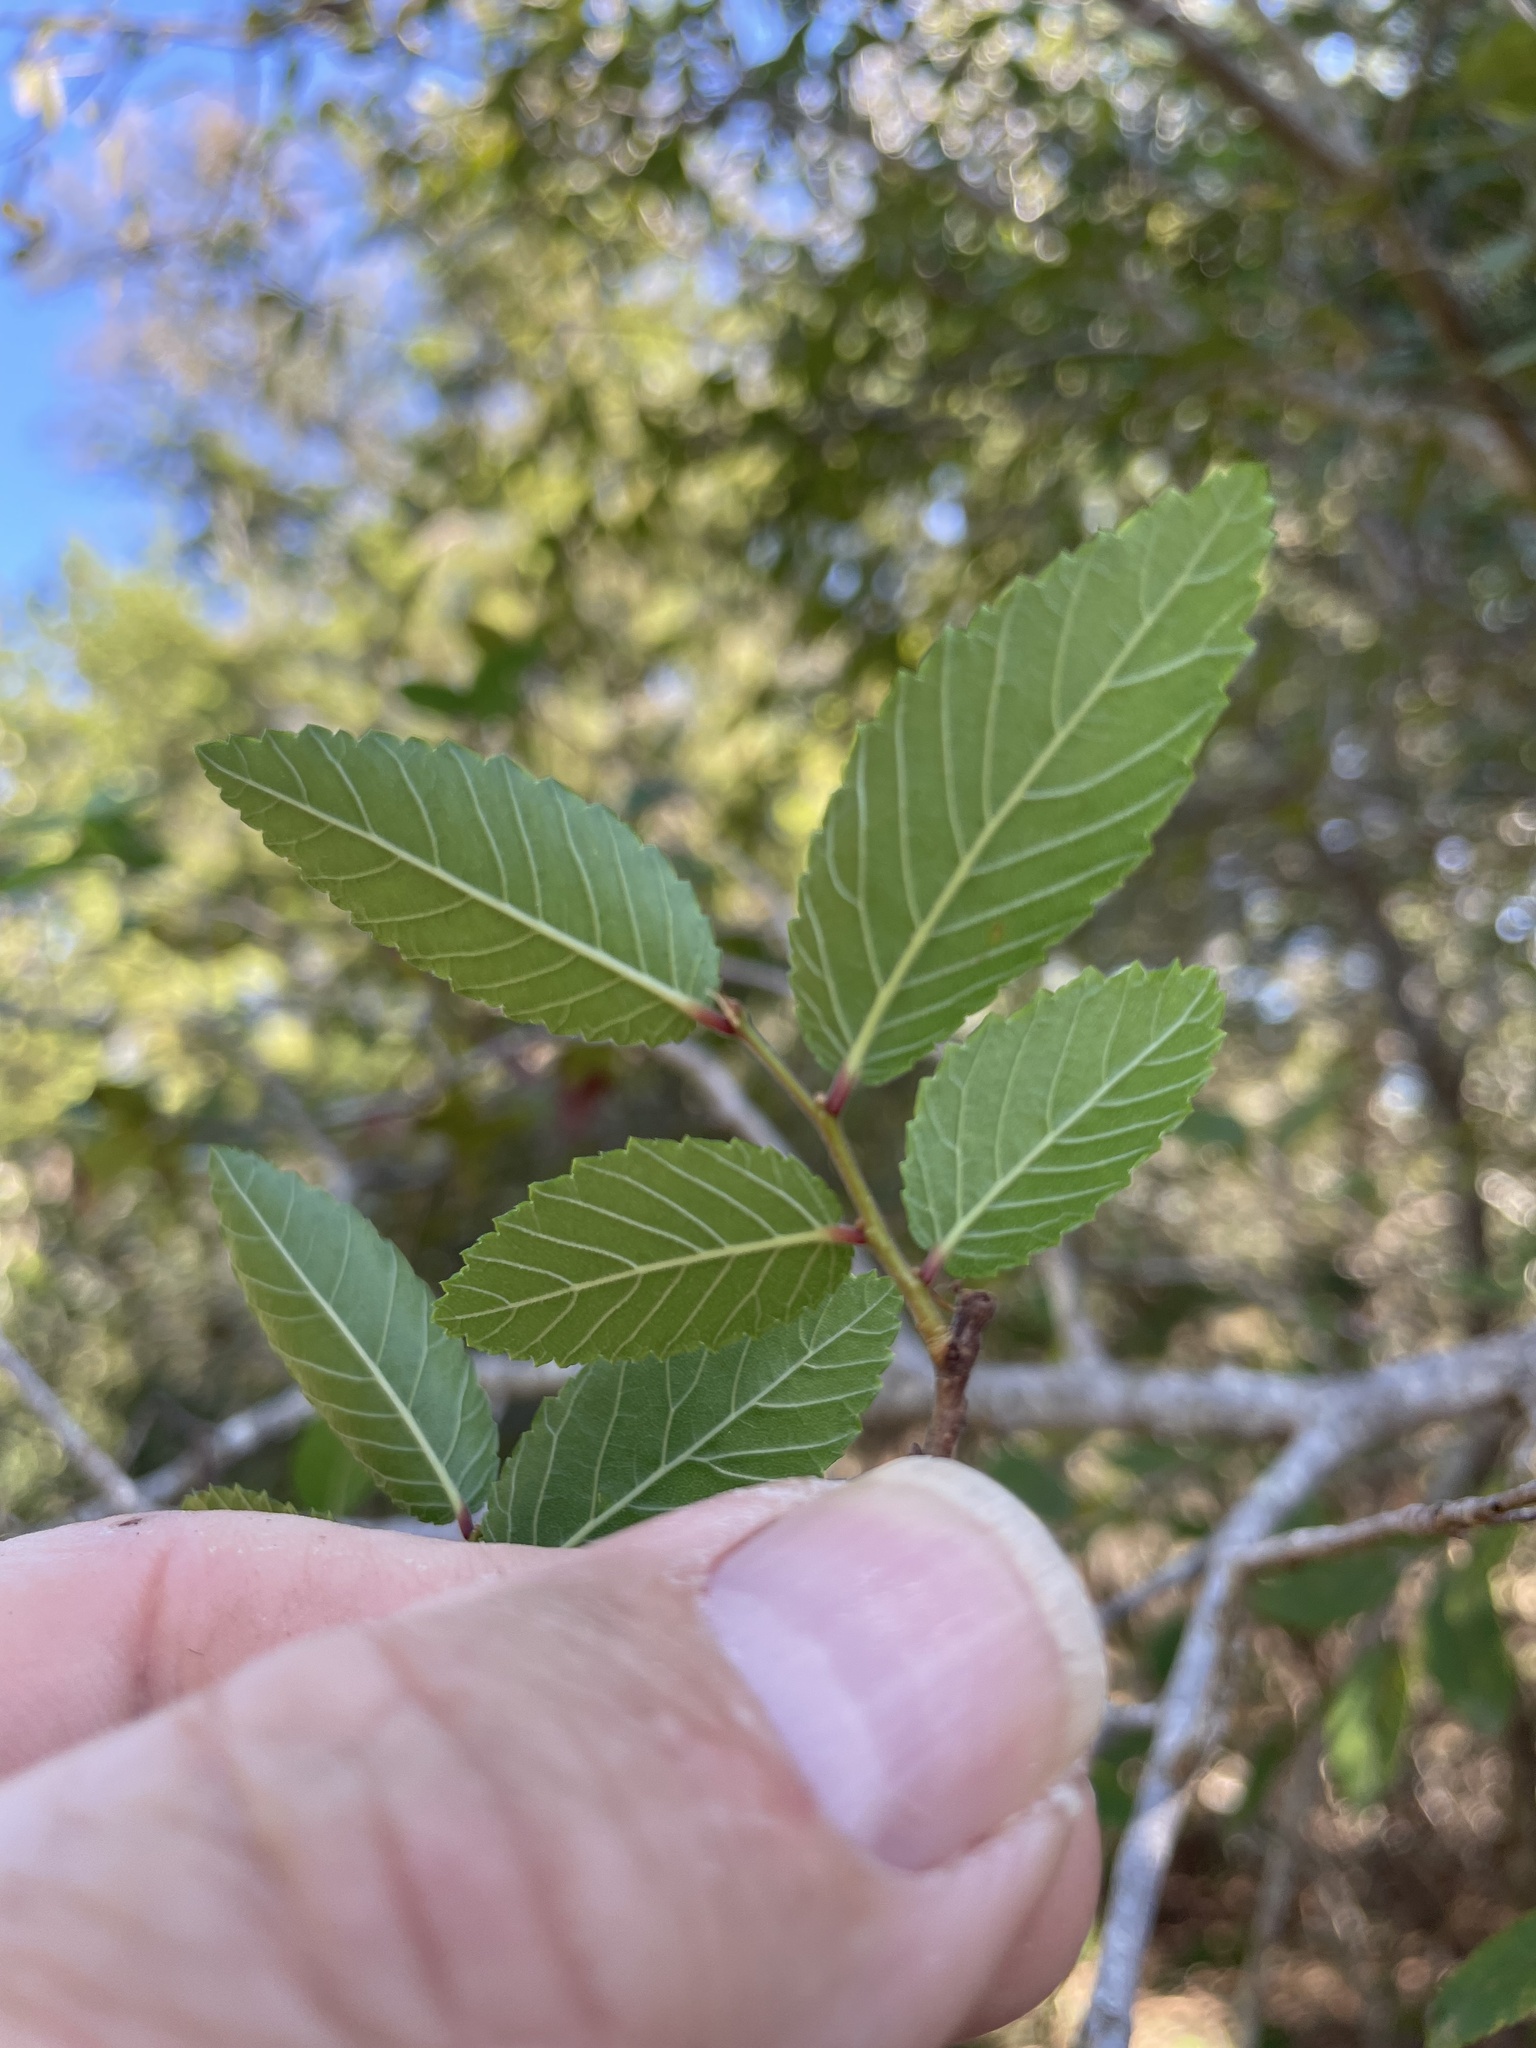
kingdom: Plantae
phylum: Tracheophyta
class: Magnoliopsida
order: Rosales
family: Ulmaceae
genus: Ulmus
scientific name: Ulmus crassifolia
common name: Basket elm
